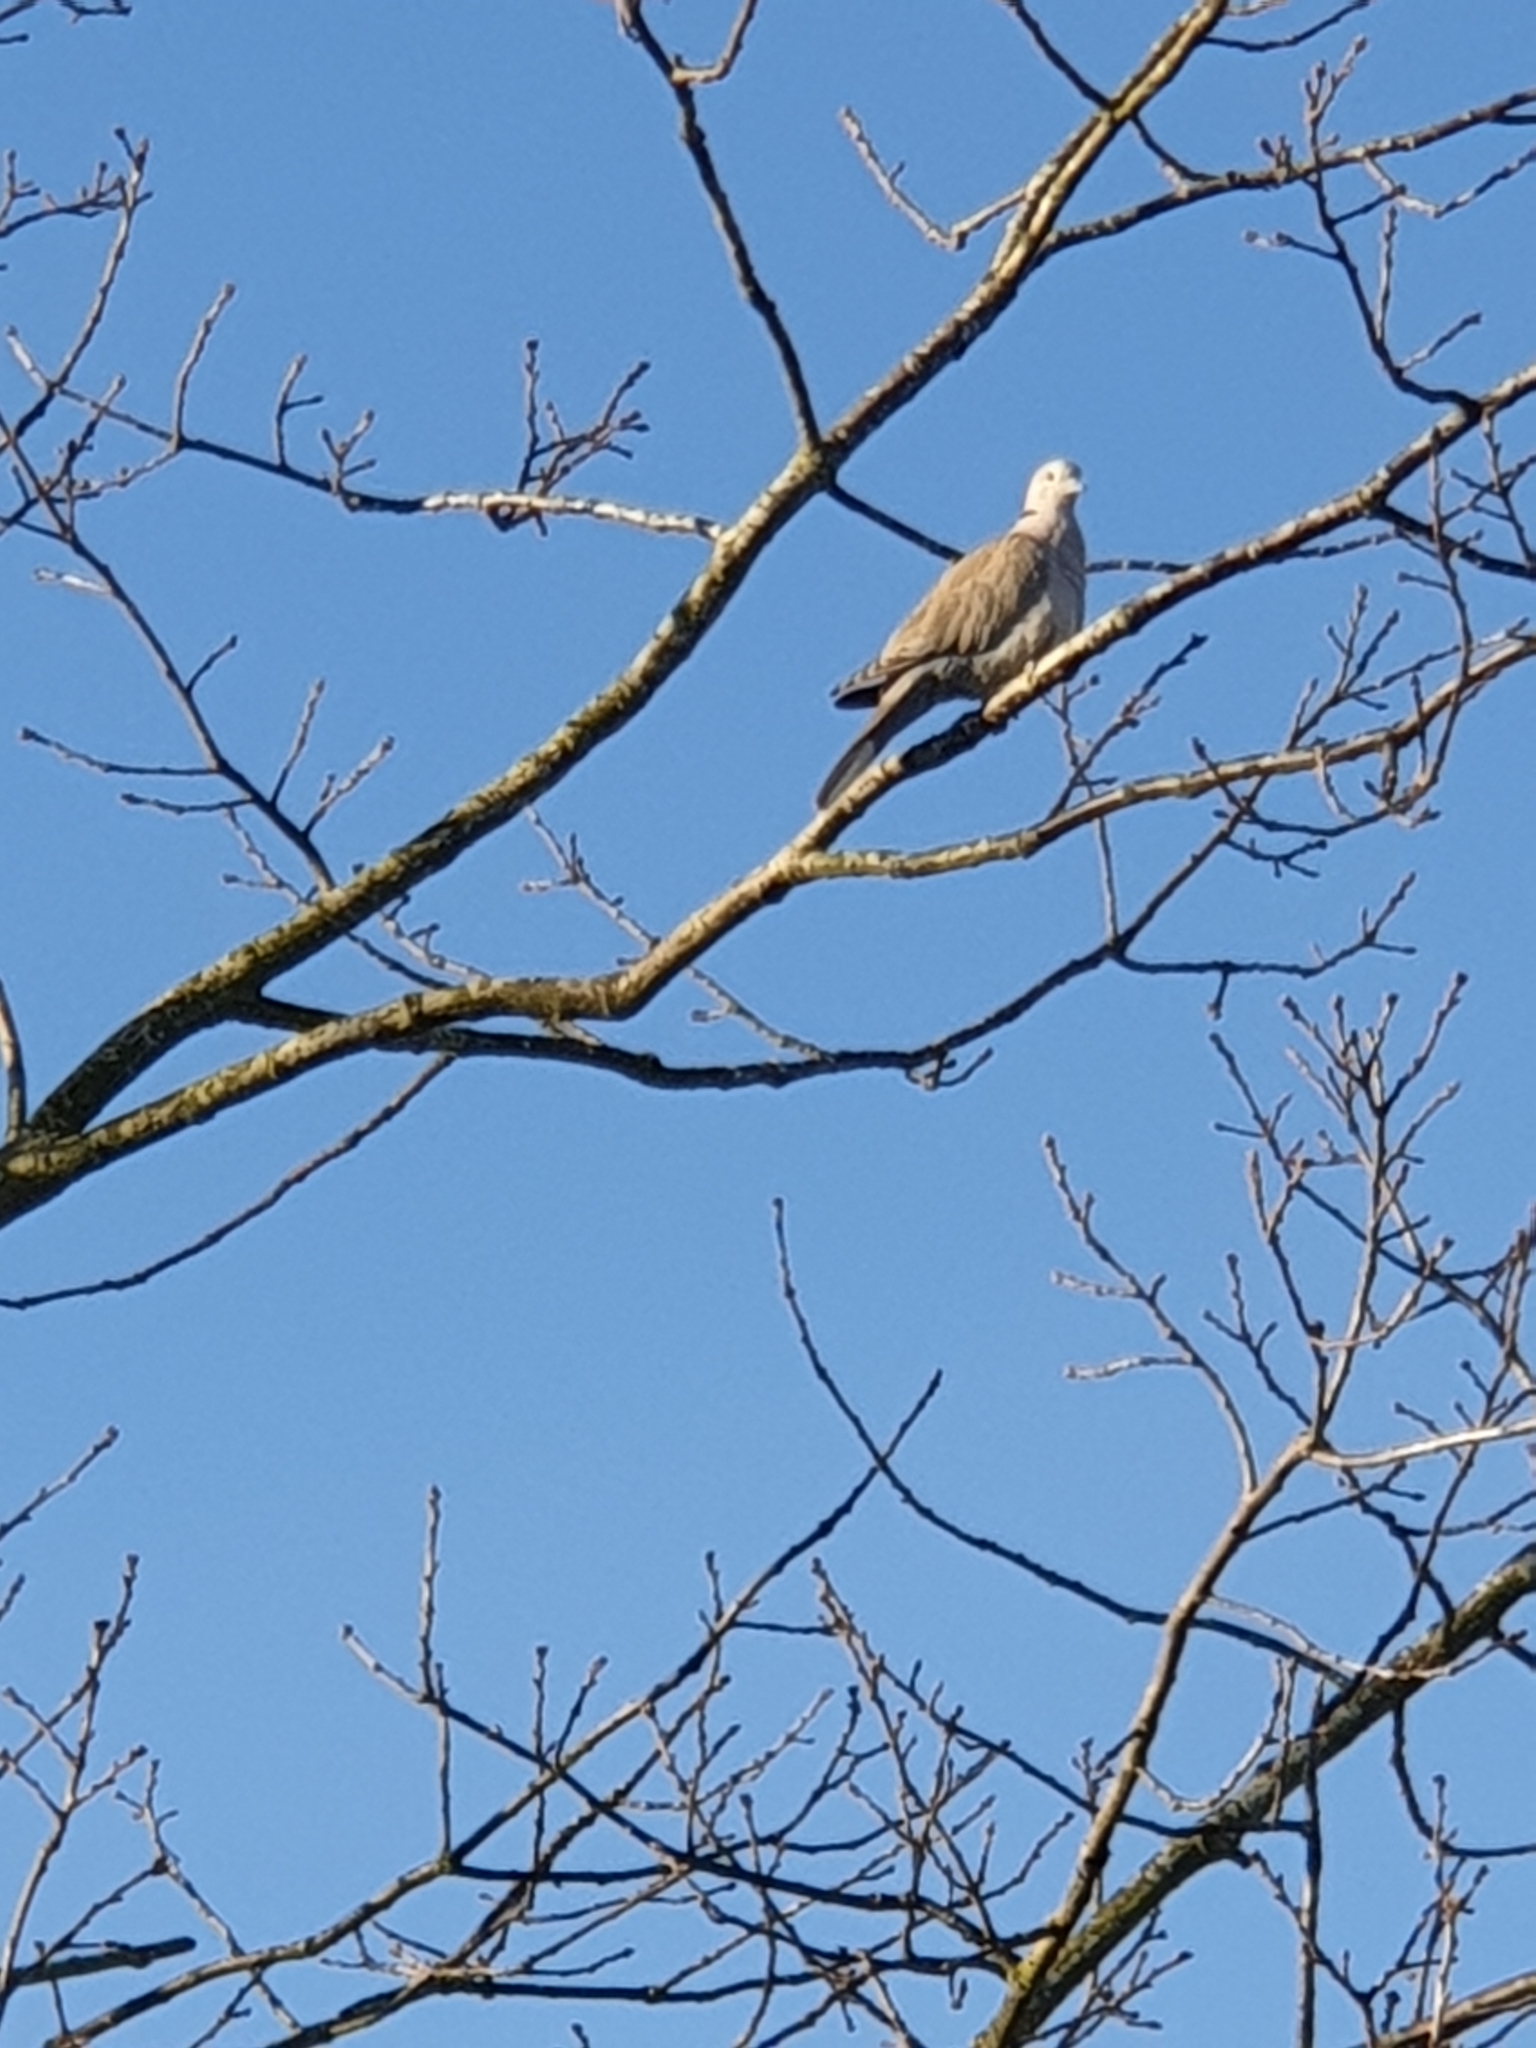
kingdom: Animalia
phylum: Chordata
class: Aves
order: Columbiformes
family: Columbidae
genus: Streptopelia
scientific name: Streptopelia decaocto
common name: Eurasian collared dove
